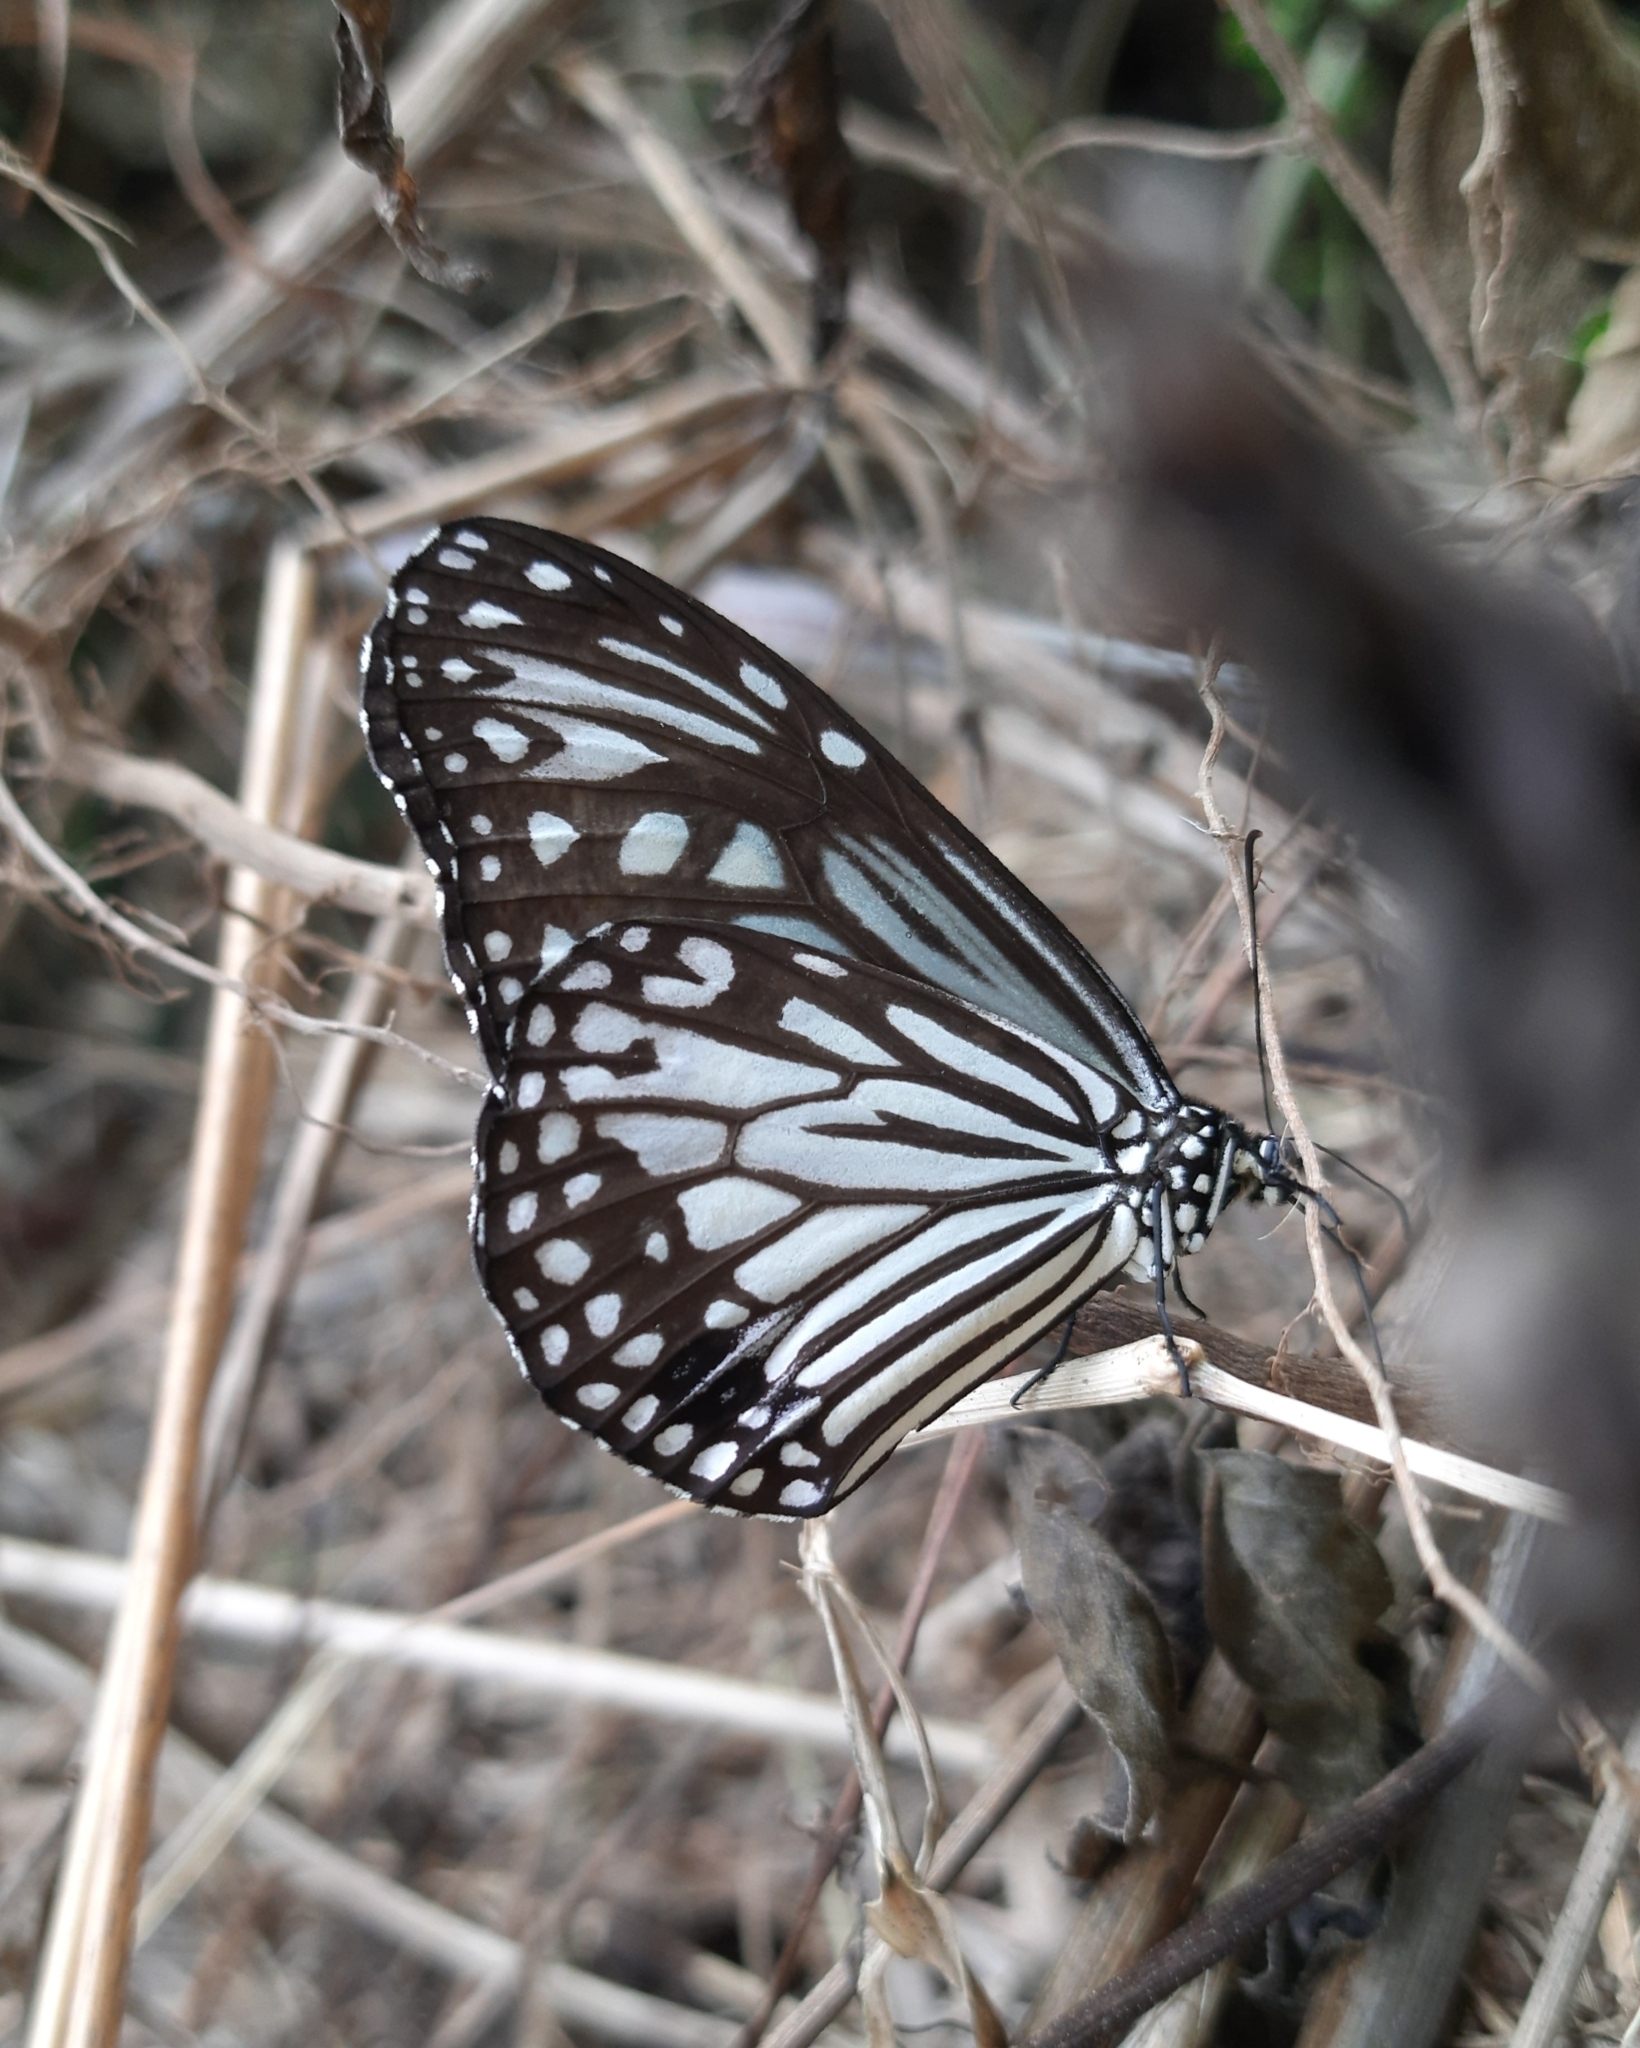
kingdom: Animalia
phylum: Arthropoda
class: Insecta
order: Lepidoptera
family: Nymphalidae
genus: Parantica
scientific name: Parantica aglea
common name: Glassy tiger
